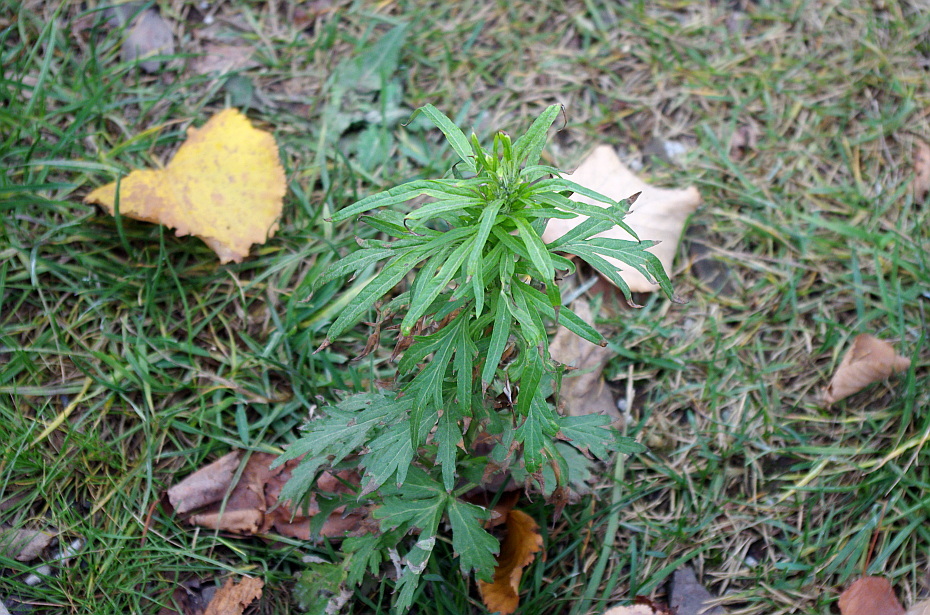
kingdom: Plantae
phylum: Tracheophyta
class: Magnoliopsida
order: Asterales
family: Asteraceae
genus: Artemisia
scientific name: Artemisia vulgaris
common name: Mugwort
